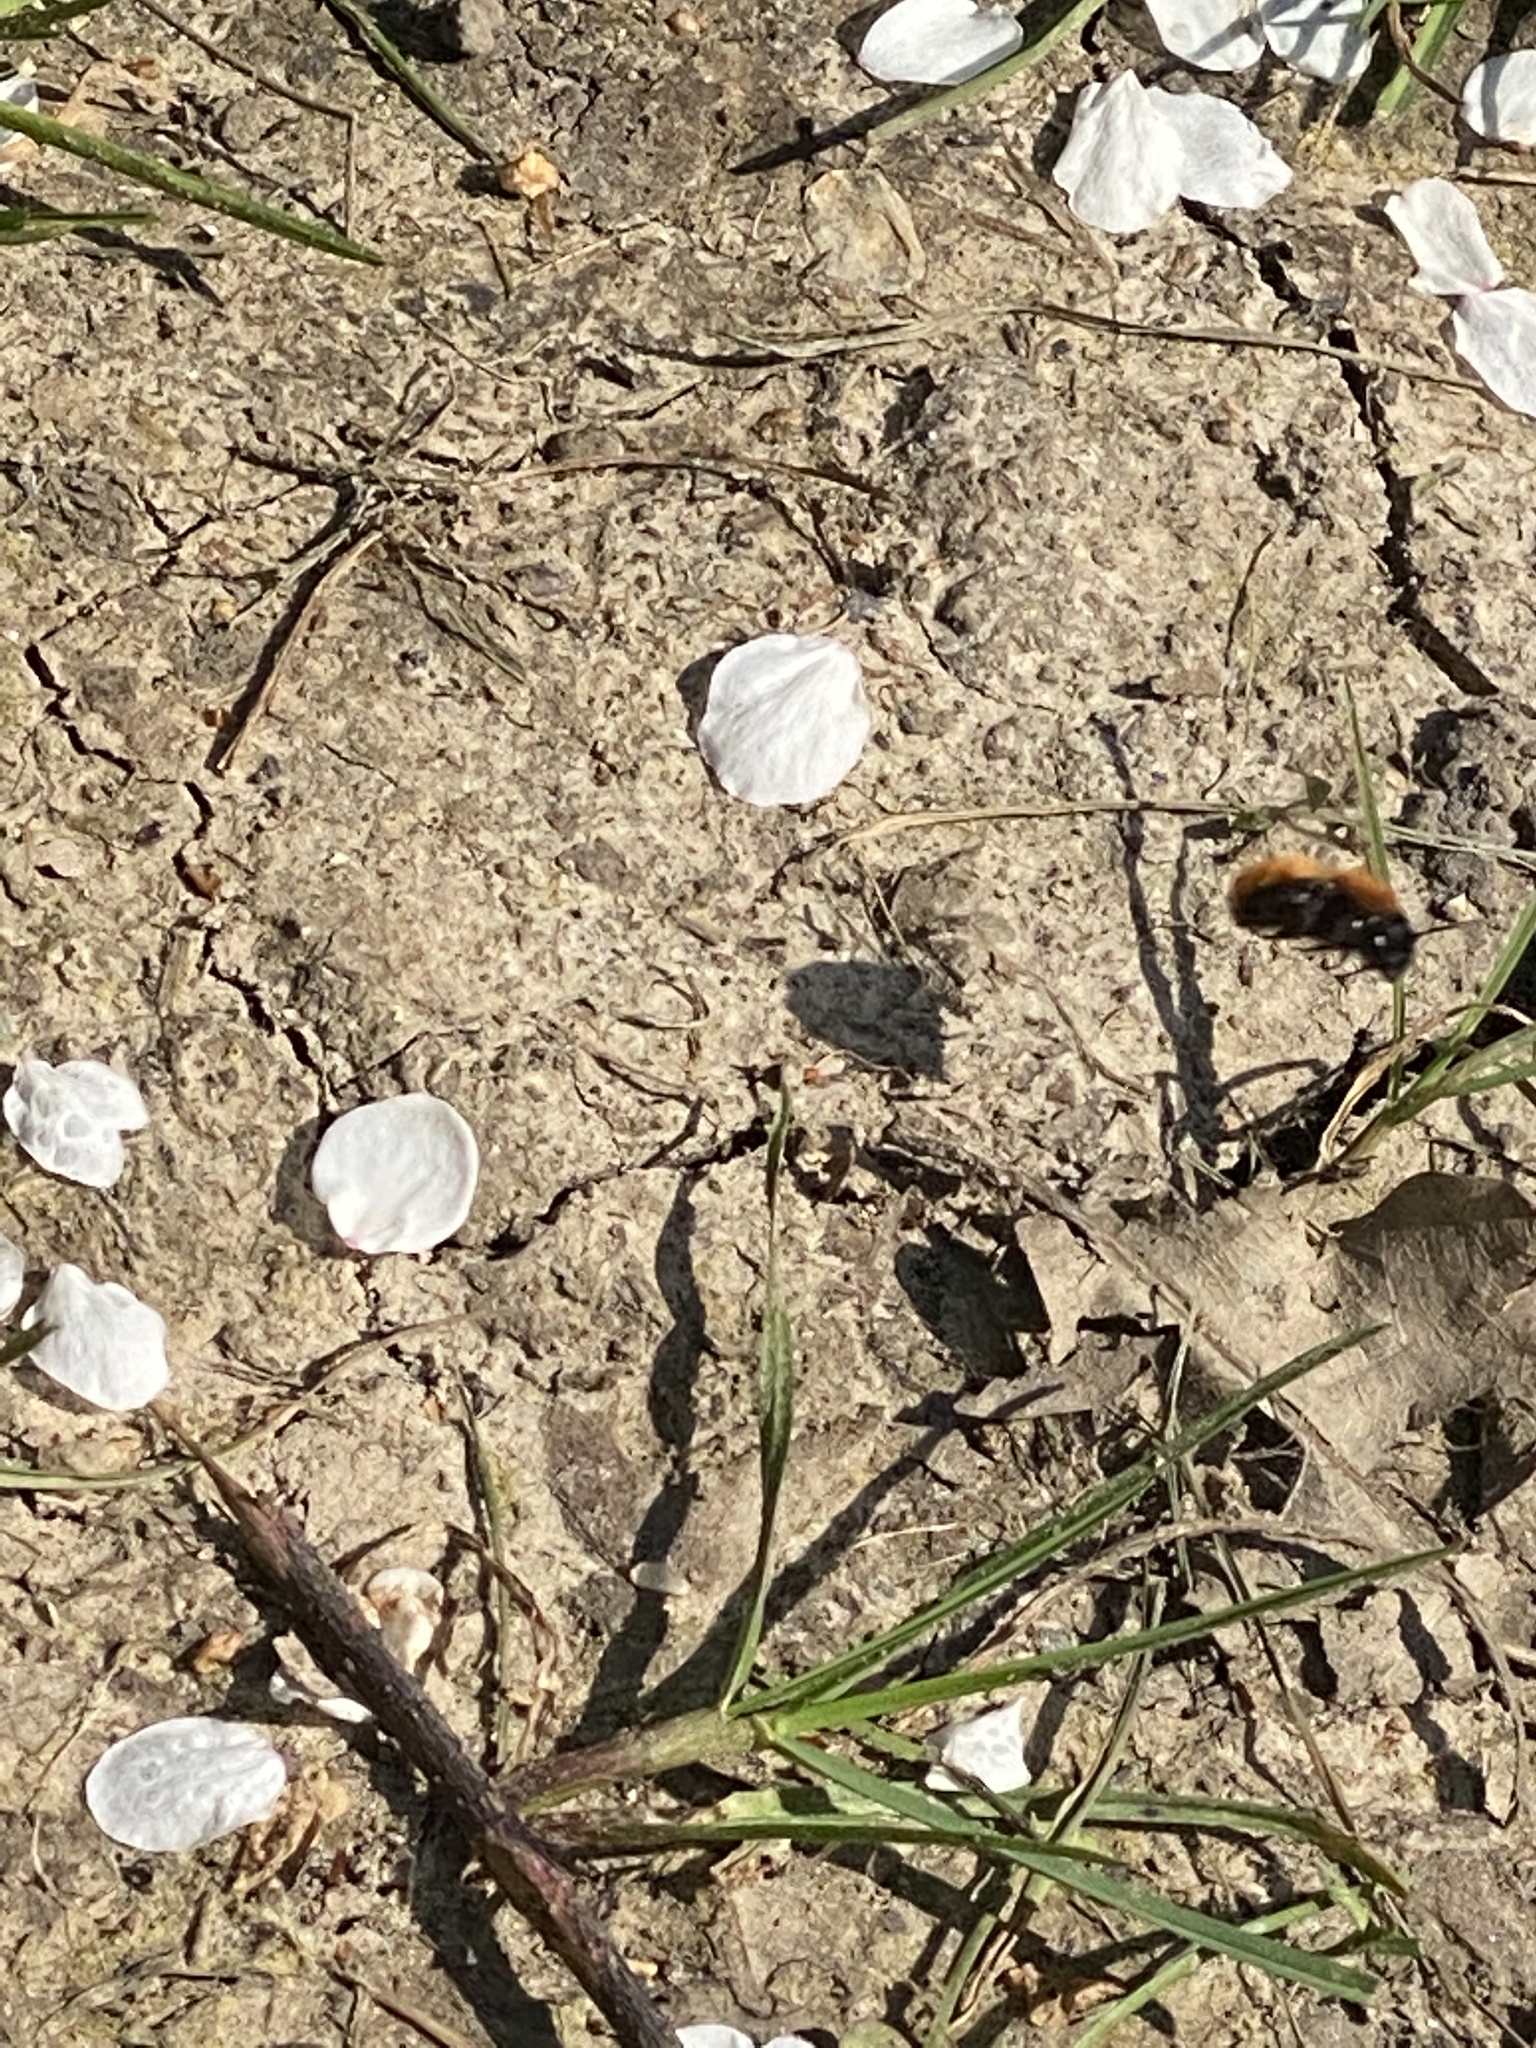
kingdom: Animalia
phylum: Arthropoda
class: Insecta
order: Hymenoptera
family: Andrenidae
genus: Andrena
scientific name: Andrena fulva
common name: Tawny mining bee
